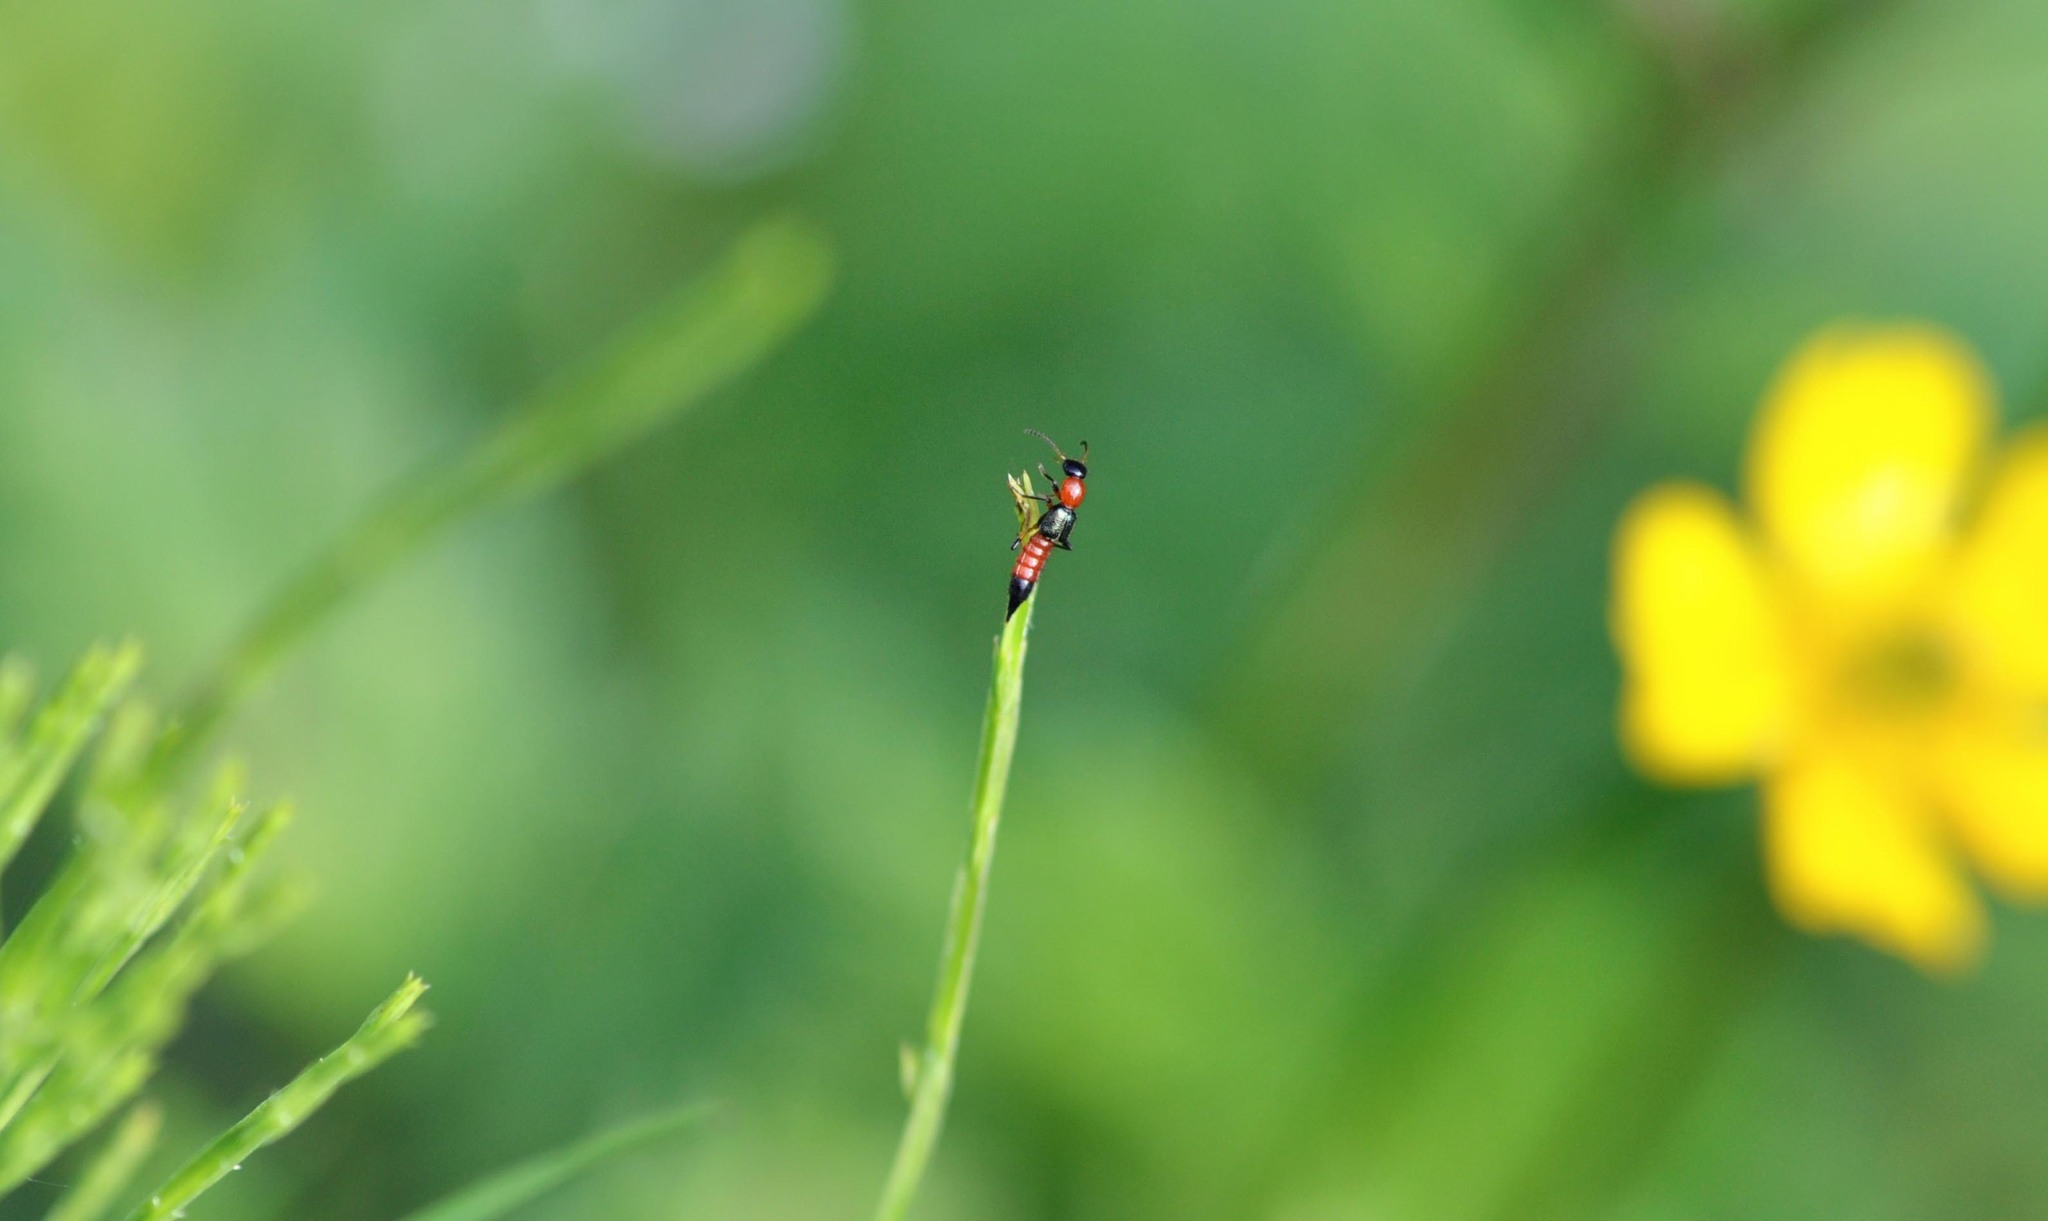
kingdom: Animalia
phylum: Arthropoda
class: Insecta
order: Coleoptera
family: Staphylinidae
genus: Paederus
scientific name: Paederus littoralis
